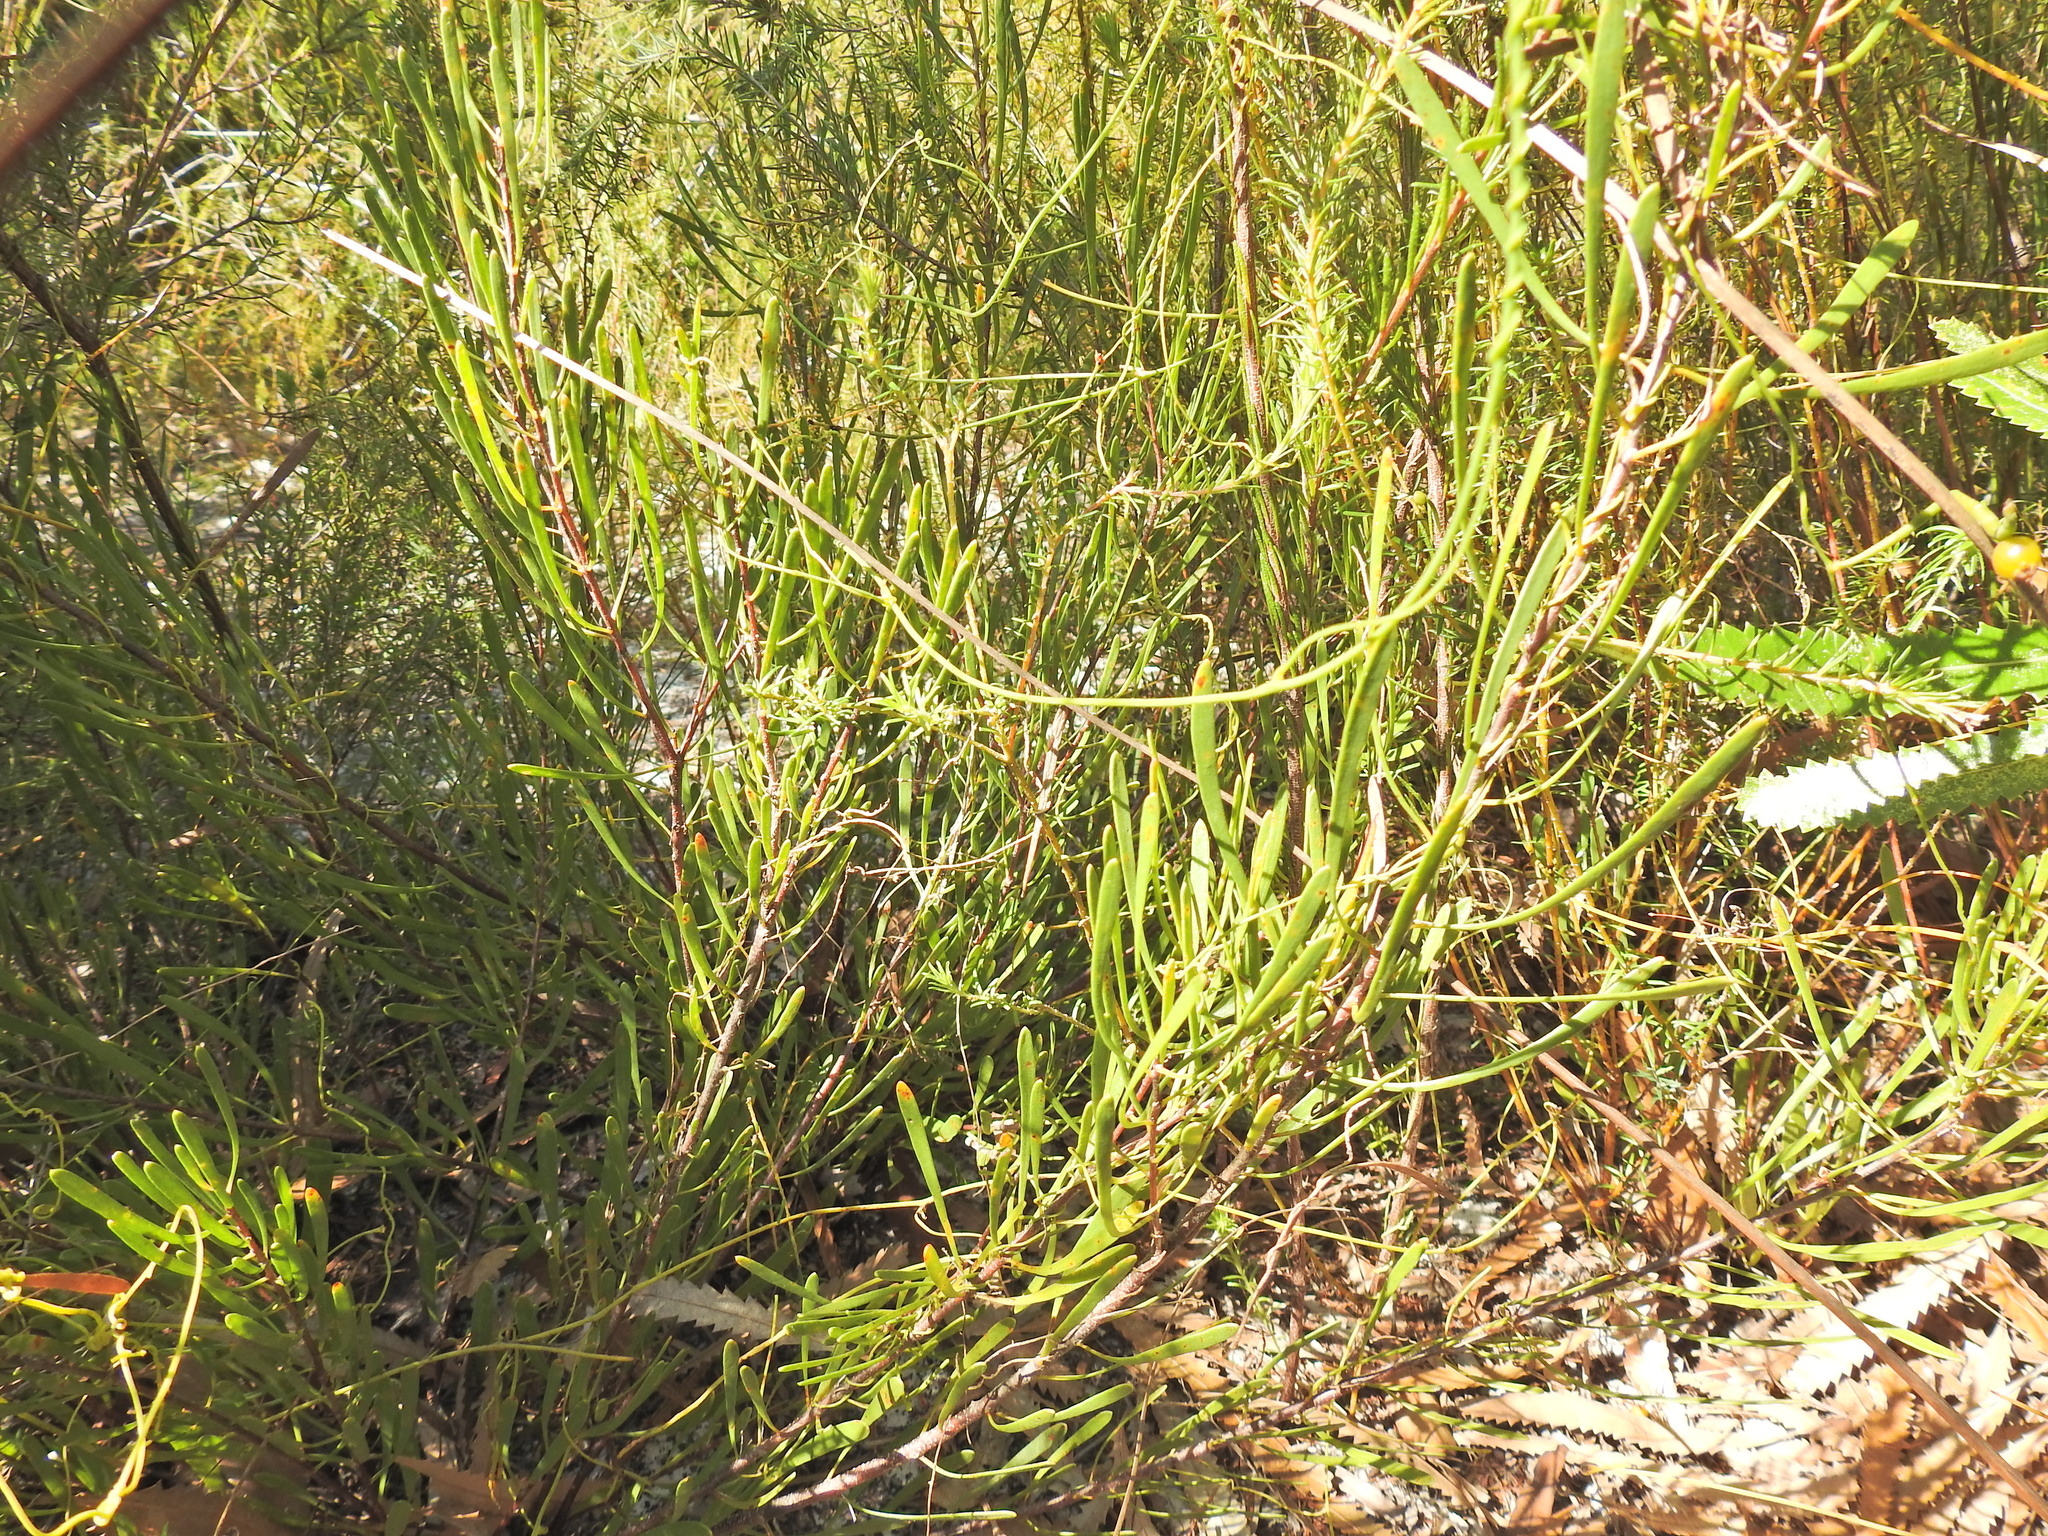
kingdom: Plantae
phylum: Tracheophyta
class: Magnoliopsida
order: Proteales
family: Proteaceae
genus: Strangea
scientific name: Strangea linearis
